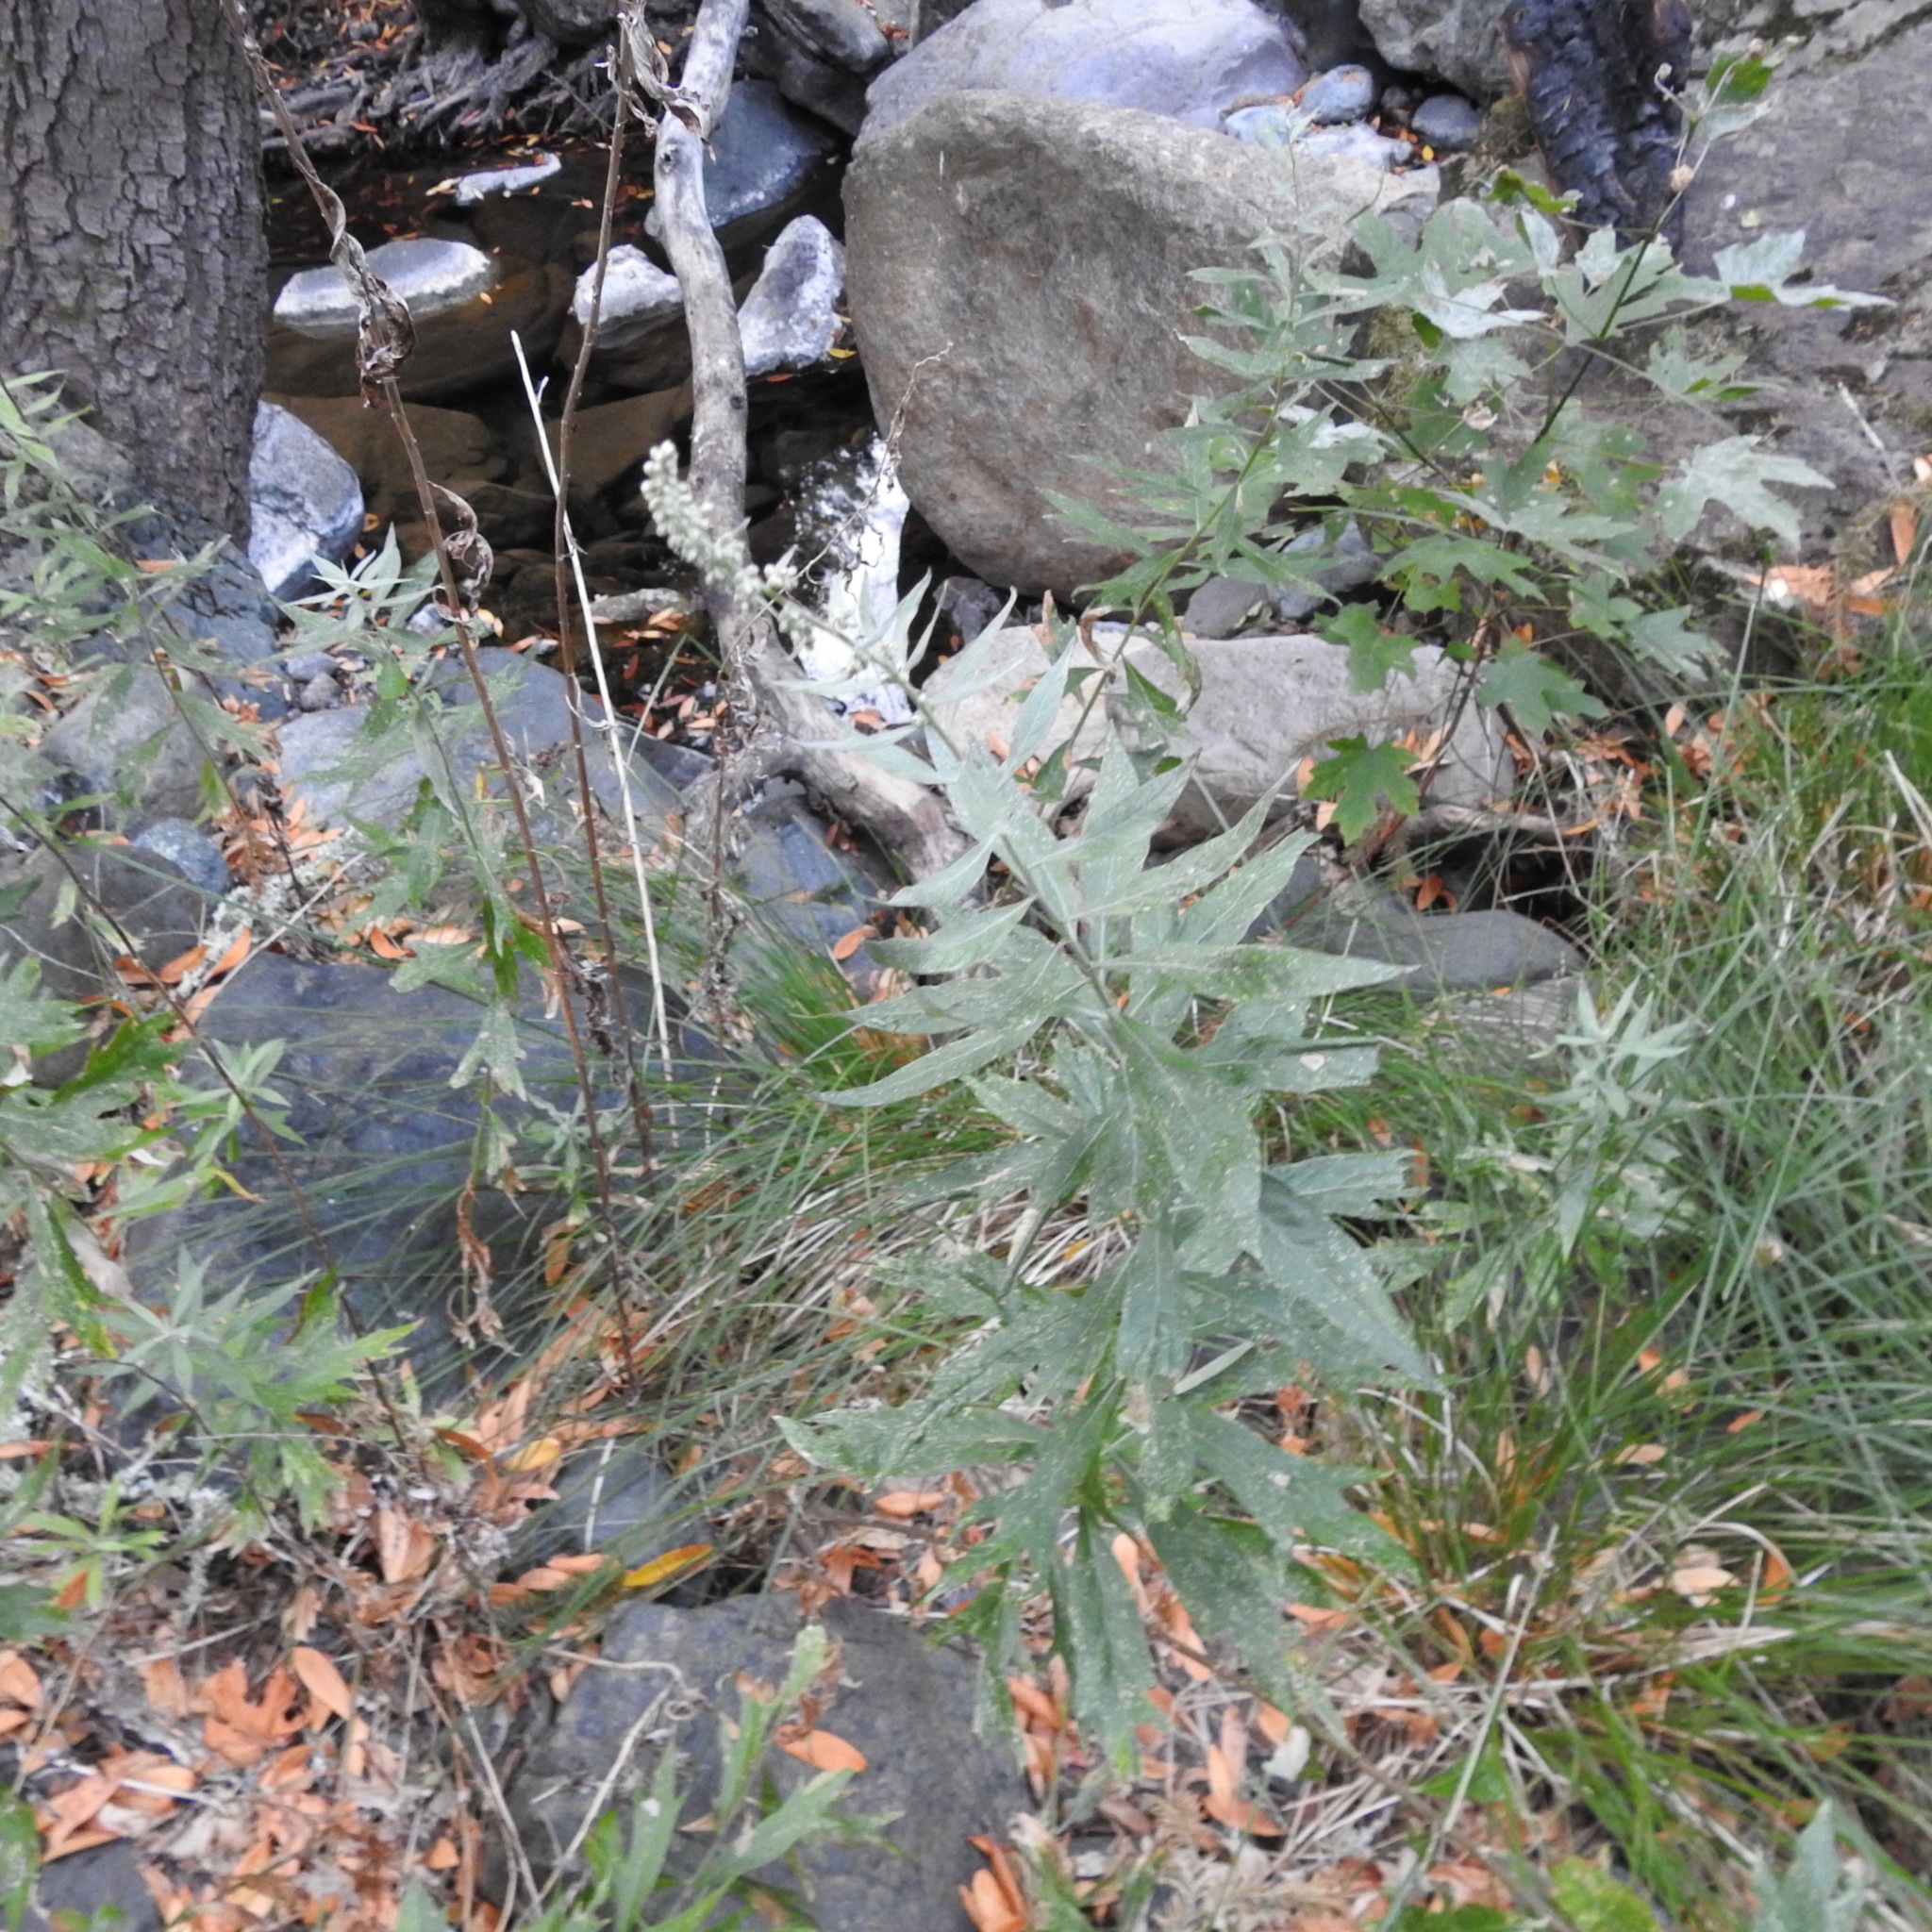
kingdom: Plantae
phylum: Tracheophyta
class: Magnoliopsida
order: Asterales
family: Asteraceae
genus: Artemisia
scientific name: Artemisia douglasiana
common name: Northwest mugwort
